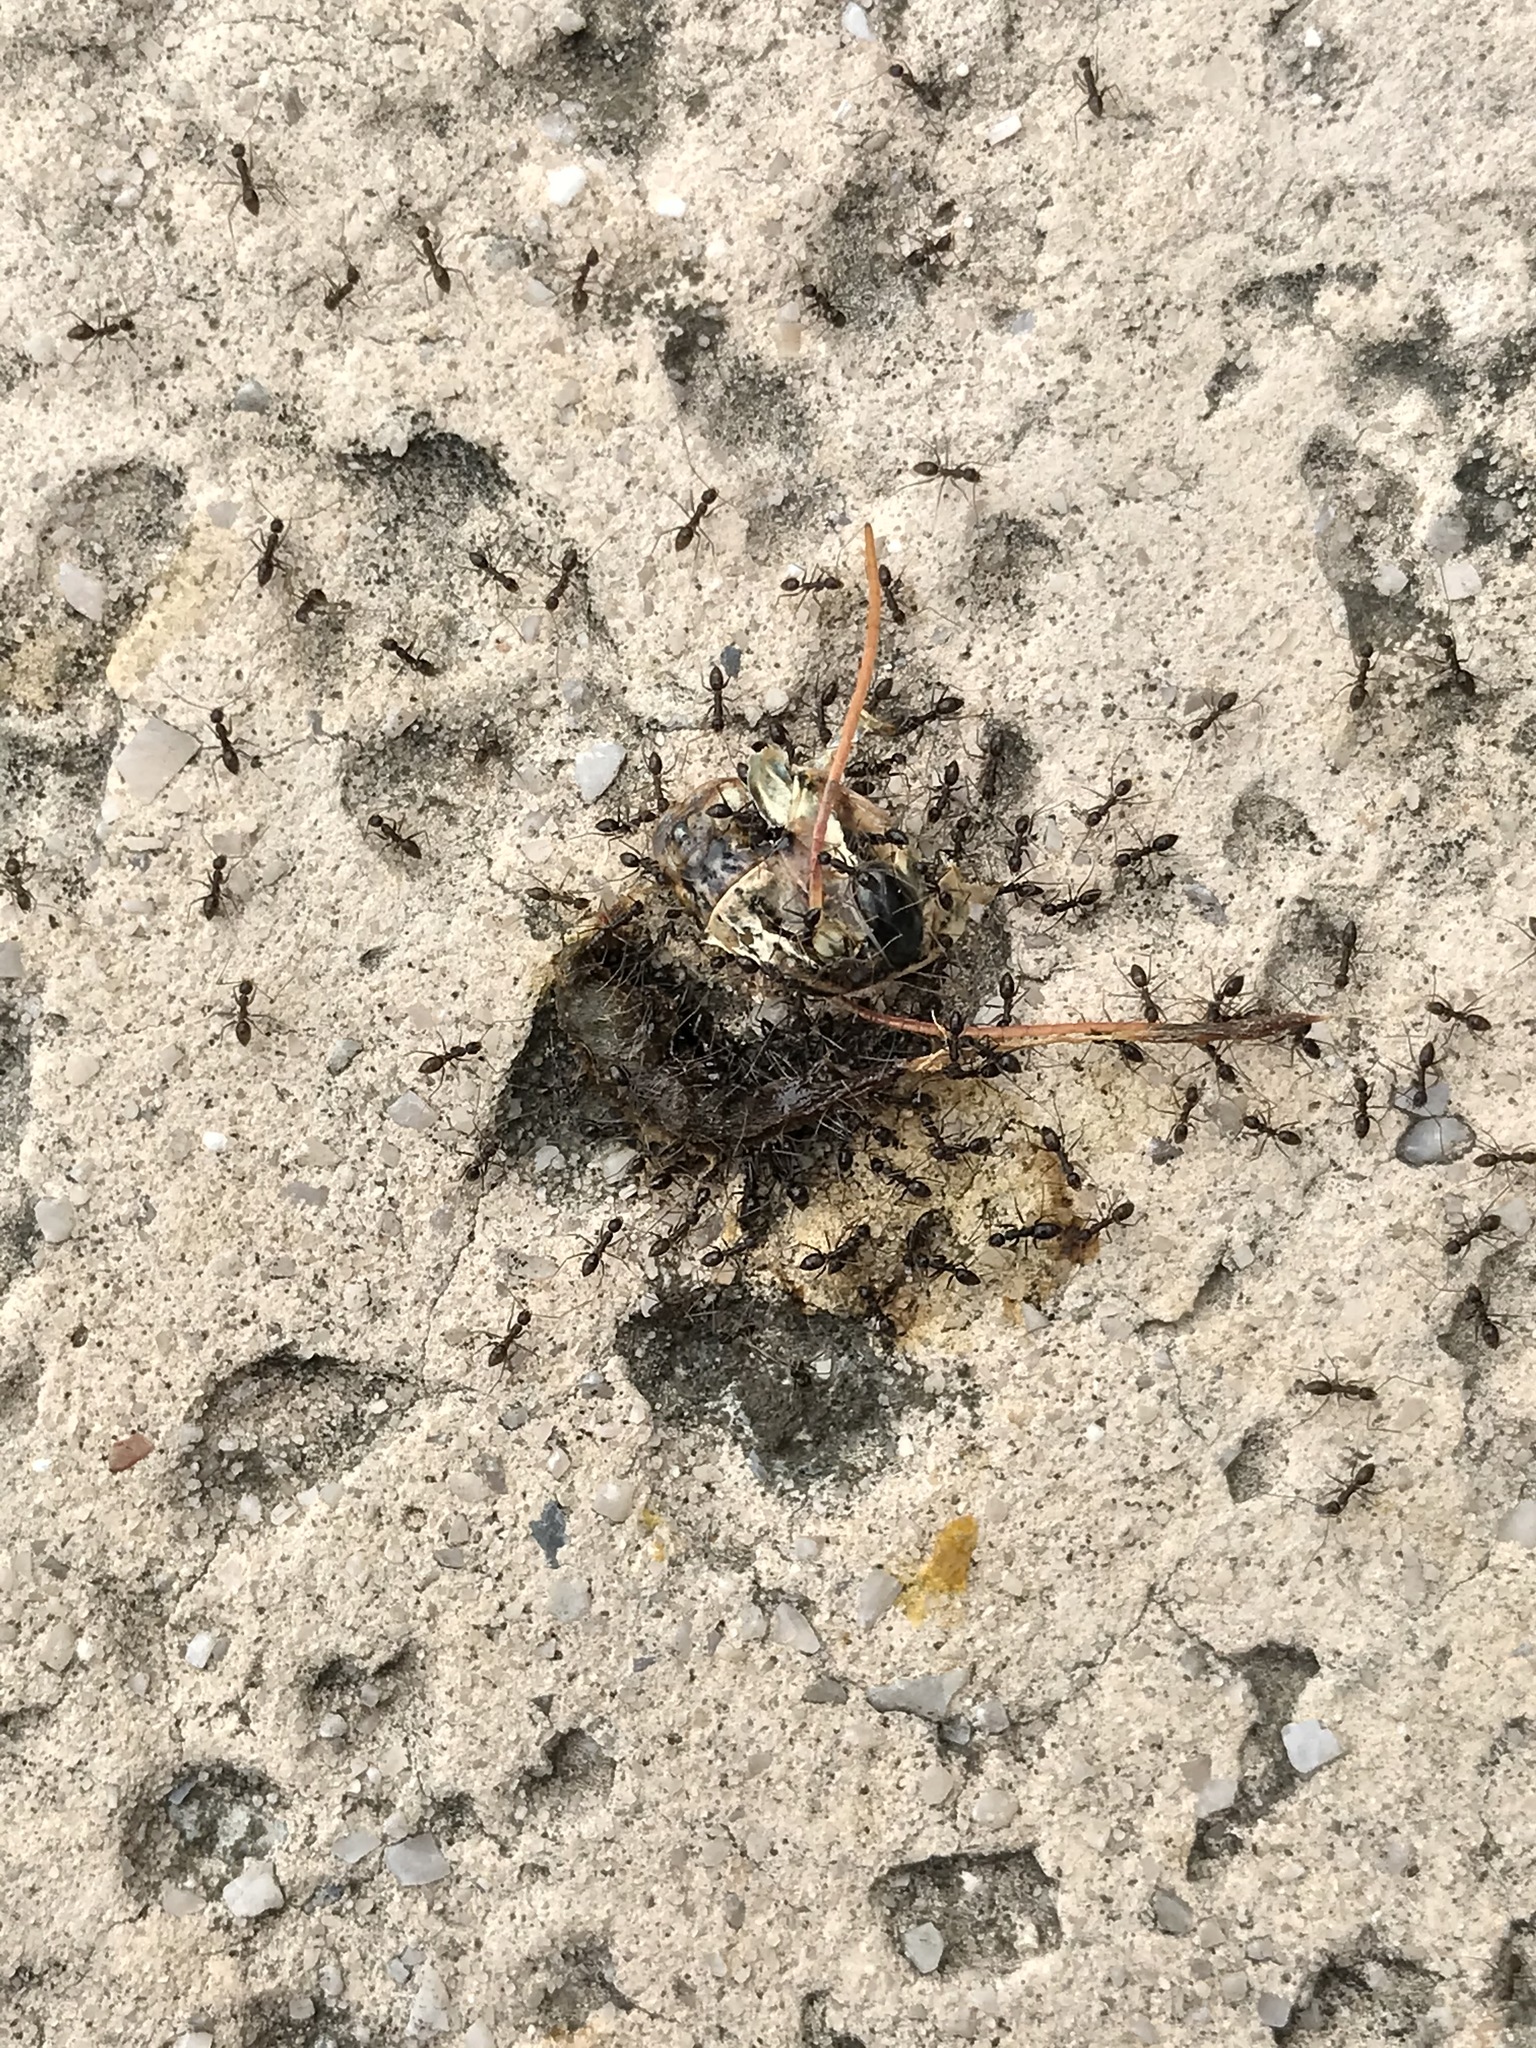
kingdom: Animalia
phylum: Arthropoda
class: Insecta
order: Hymenoptera
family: Formicidae
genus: Paratrechina
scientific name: Paratrechina longicornis
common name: Longhorned crazy ant
